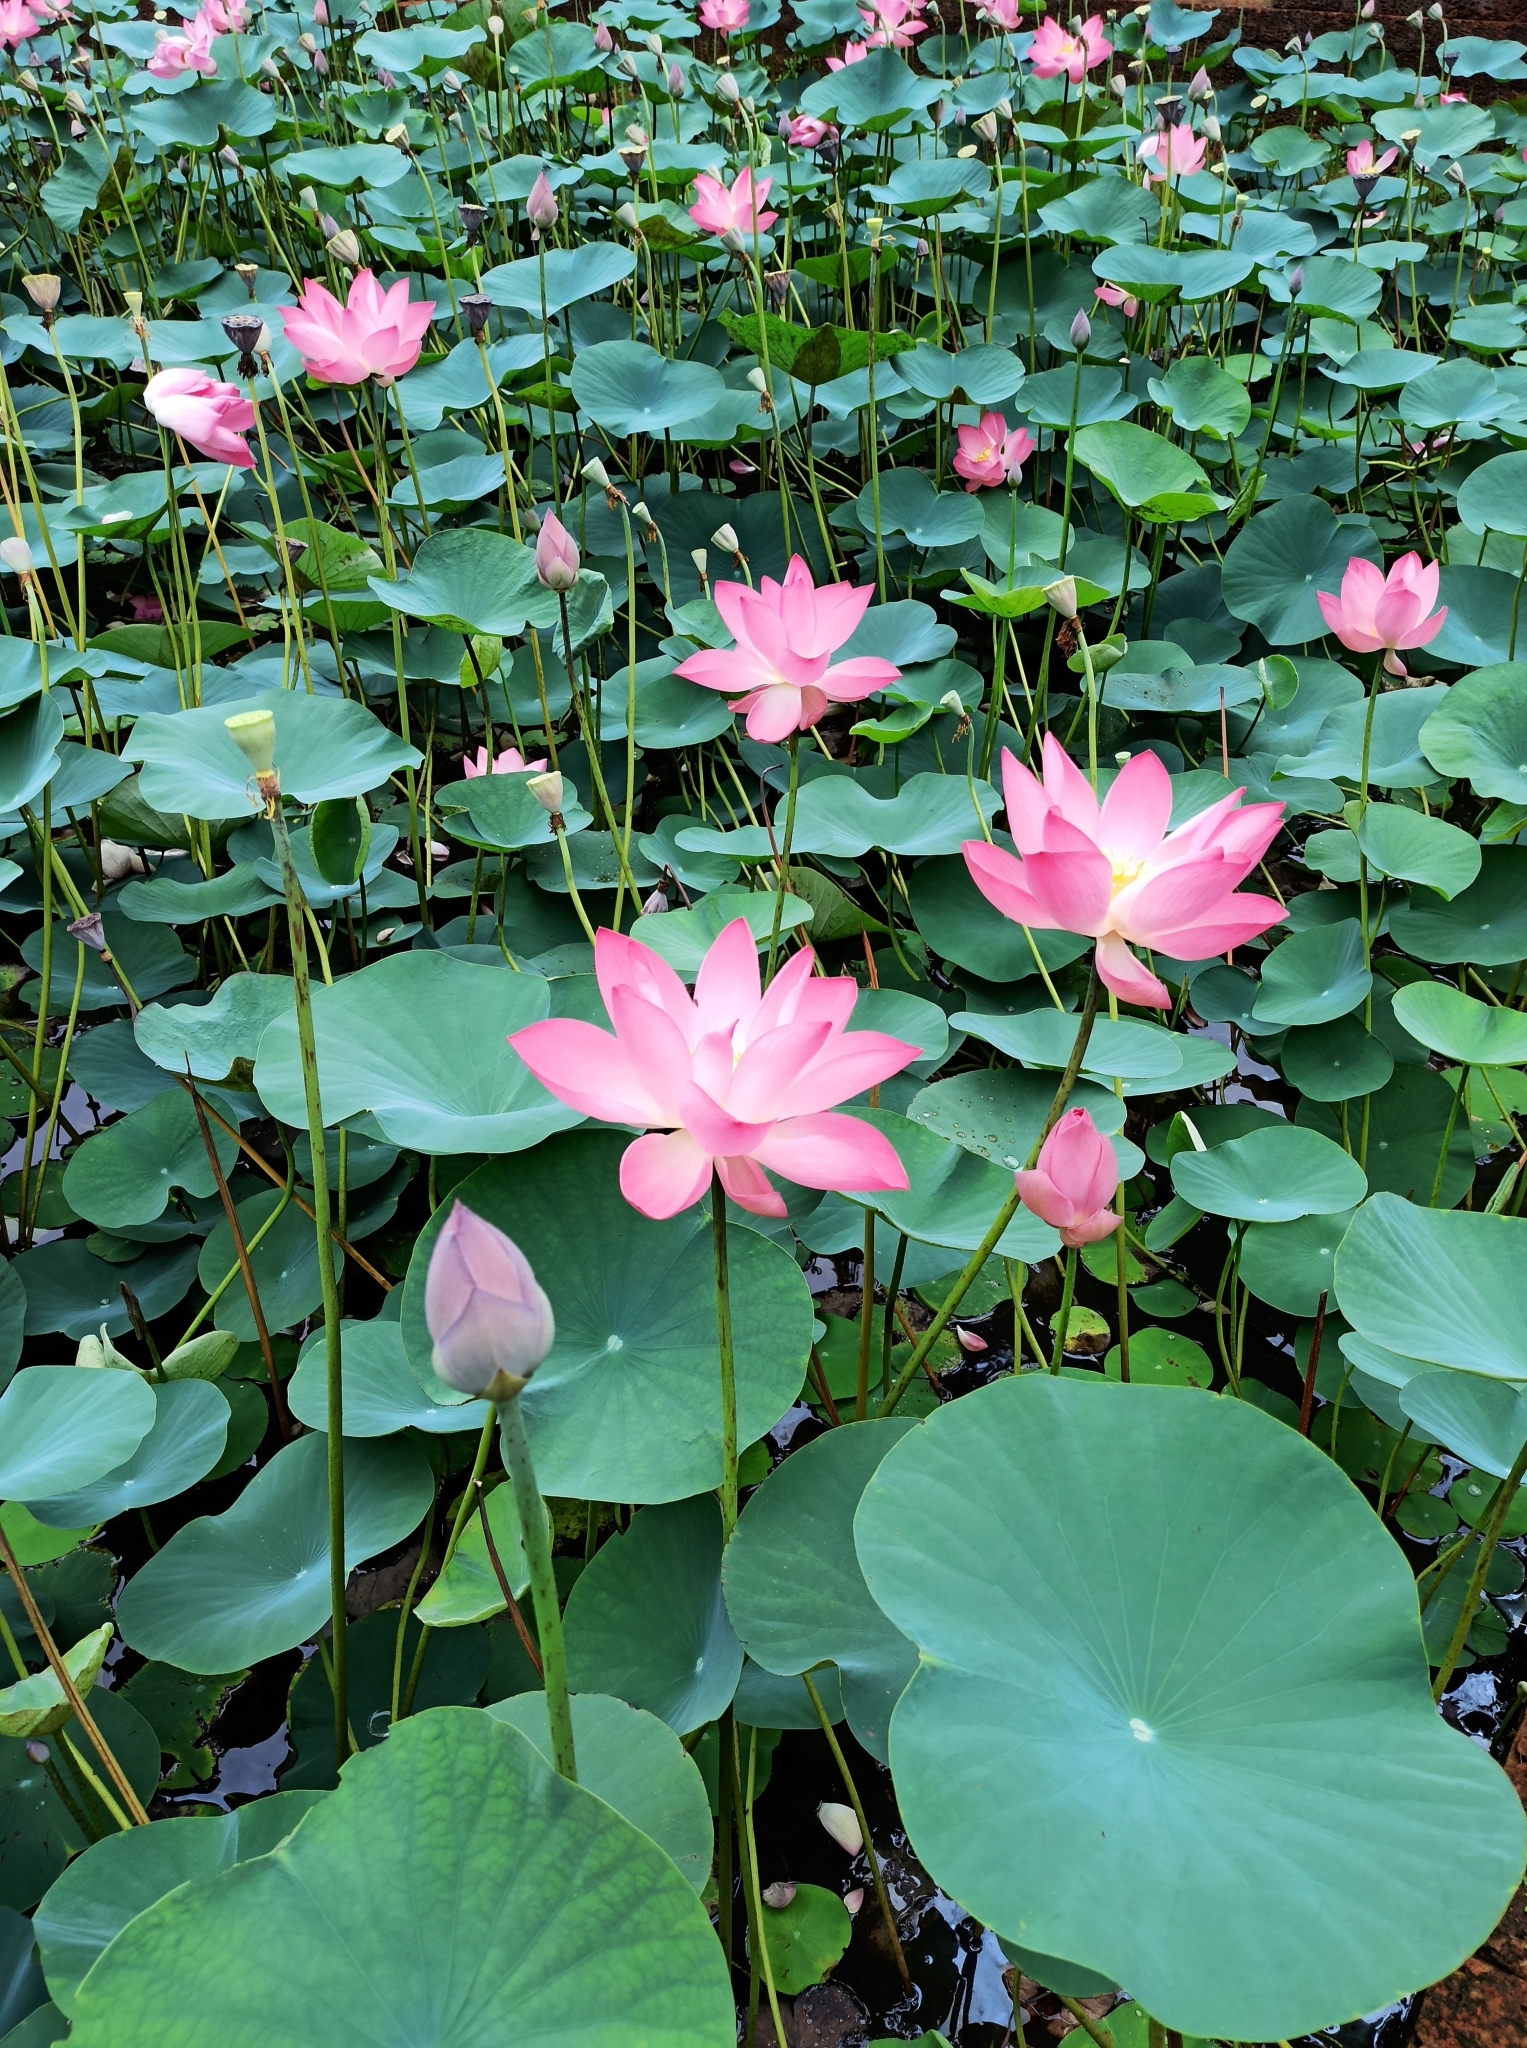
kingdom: Plantae
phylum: Tracheophyta
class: Magnoliopsida
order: Proteales
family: Nelumbonaceae
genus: Nelumbo
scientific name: Nelumbo nucifera
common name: Sacred lotus
